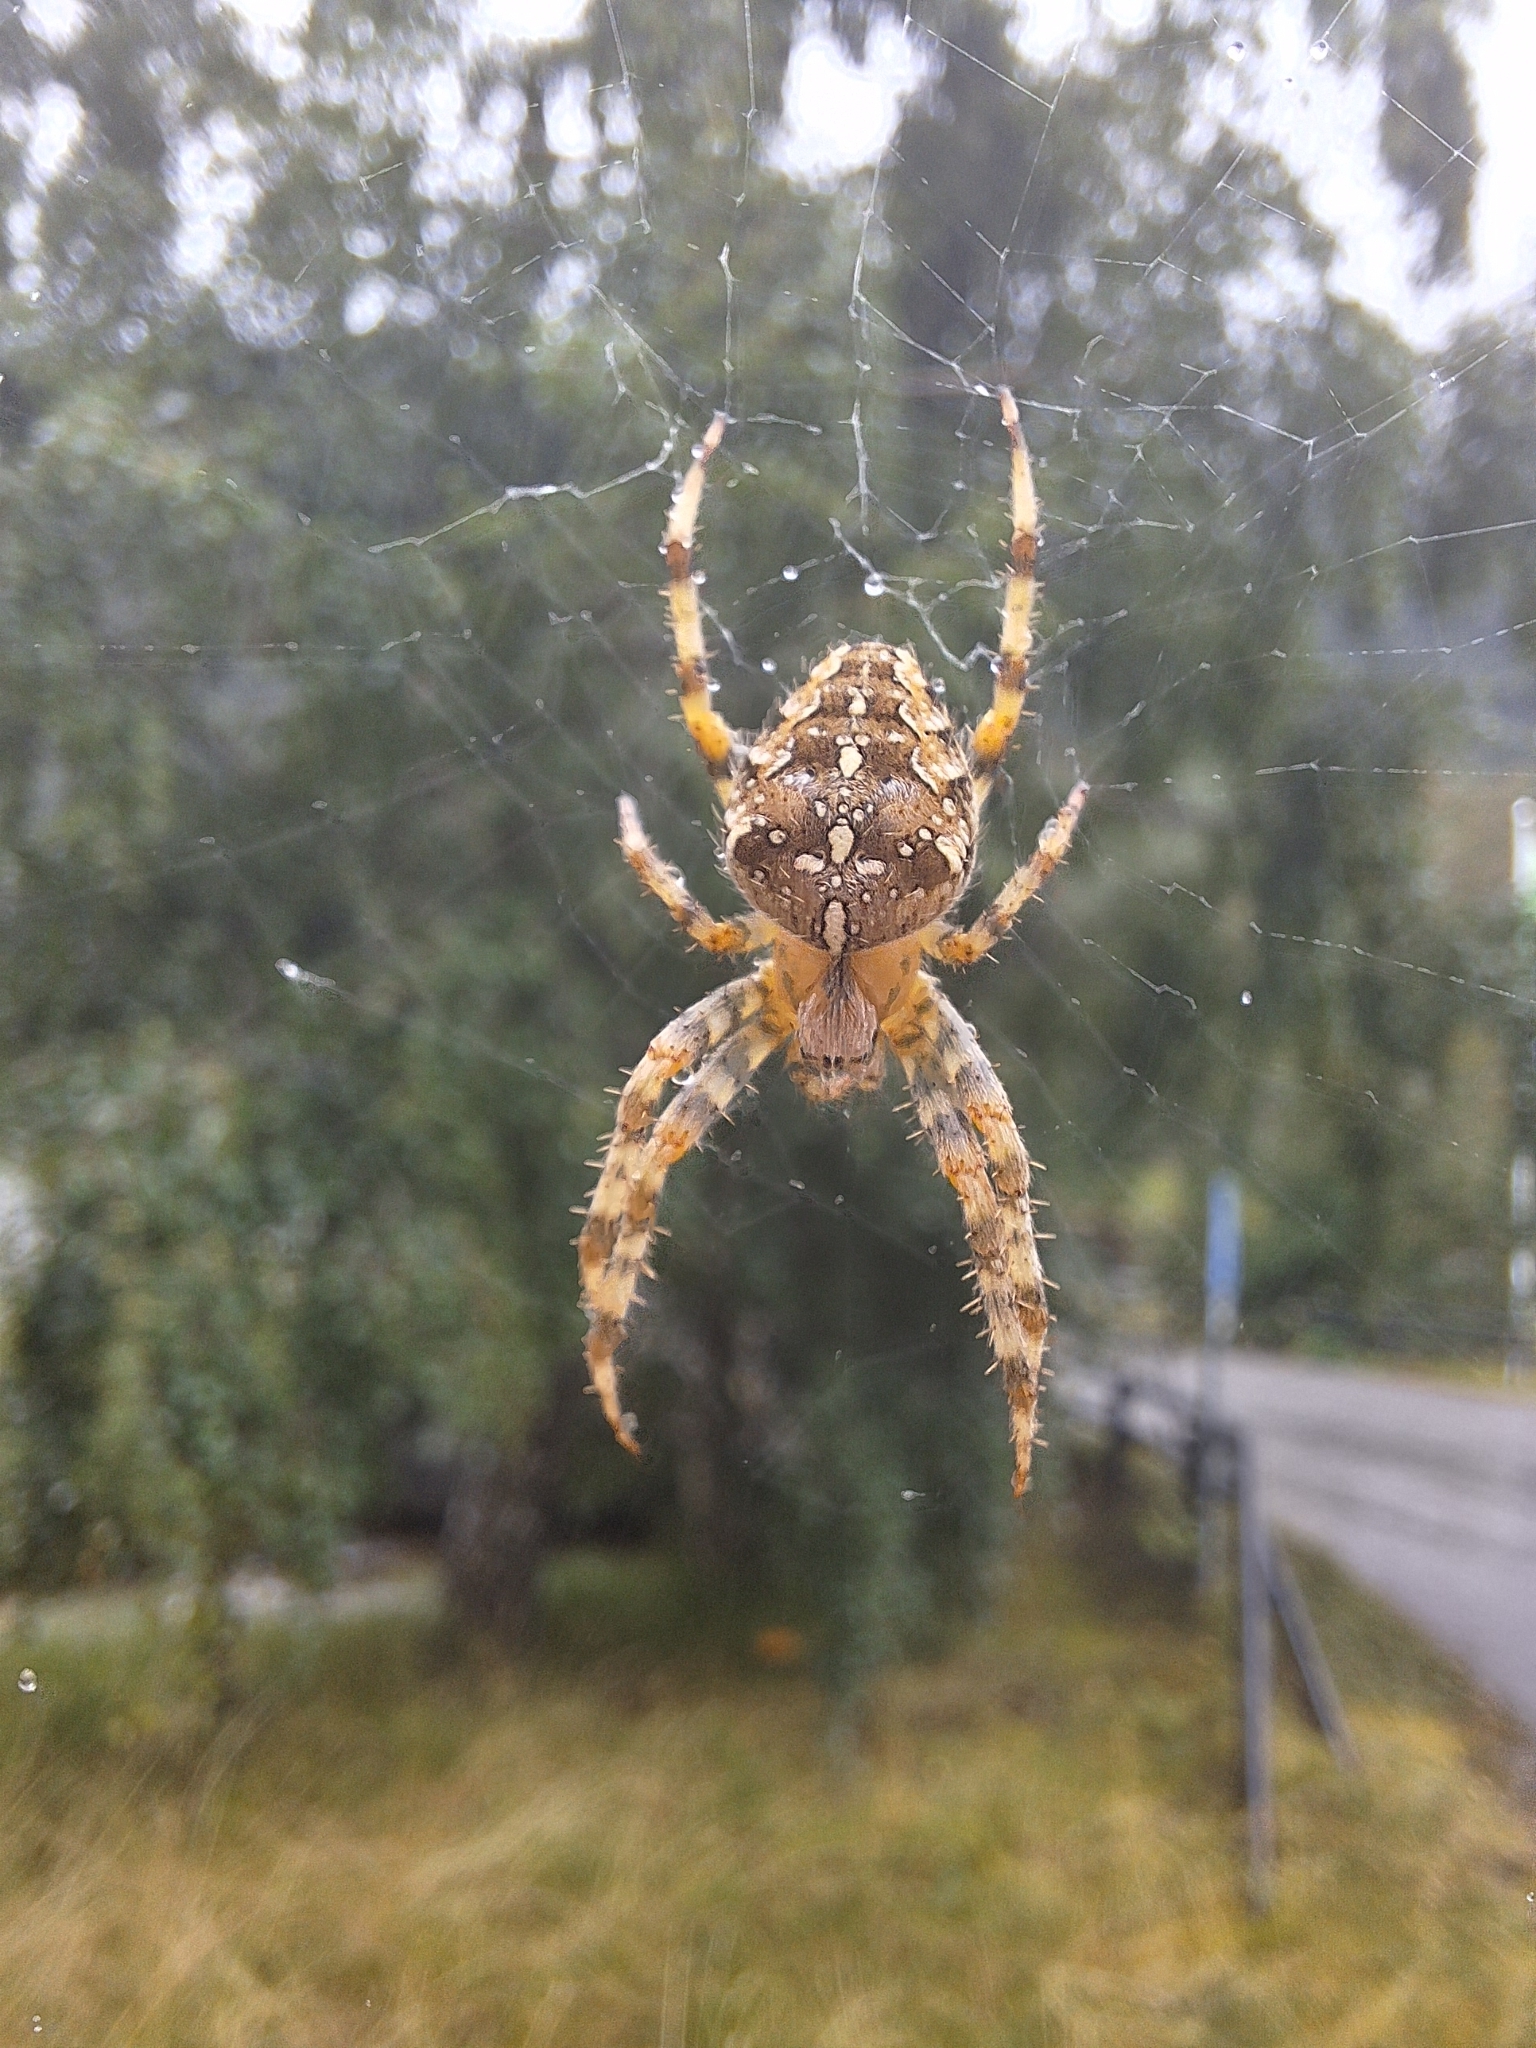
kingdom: Animalia
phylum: Arthropoda
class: Arachnida
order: Araneae
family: Araneidae
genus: Araneus
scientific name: Araneus diadematus
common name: Cross orbweaver
